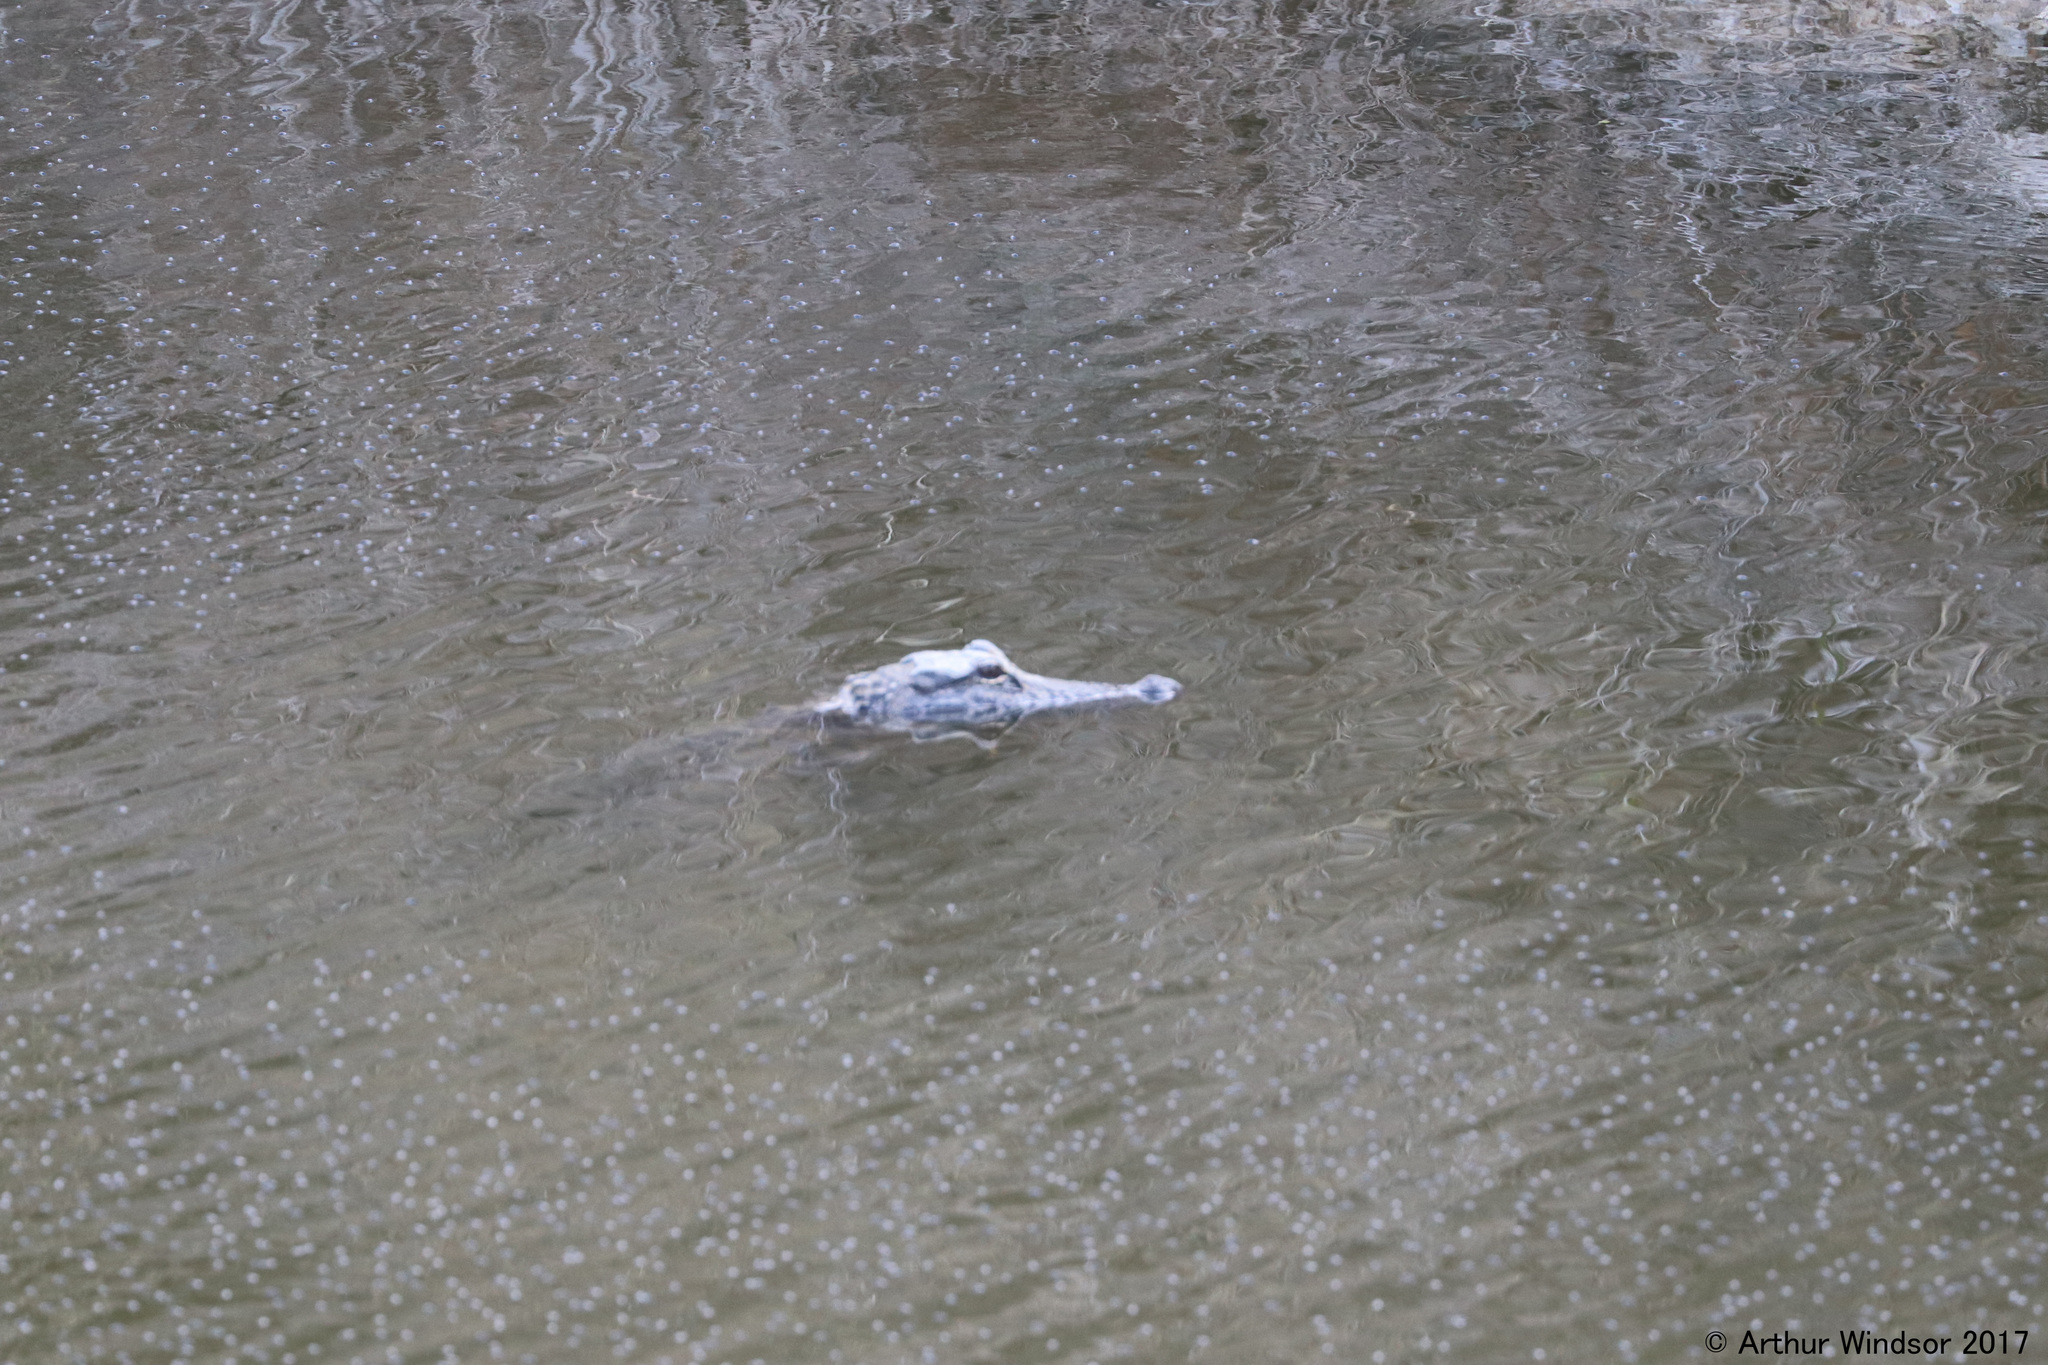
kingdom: Animalia
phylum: Chordata
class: Crocodylia
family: Alligatoridae
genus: Alligator
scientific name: Alligator mississippiensis
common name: American alligator
